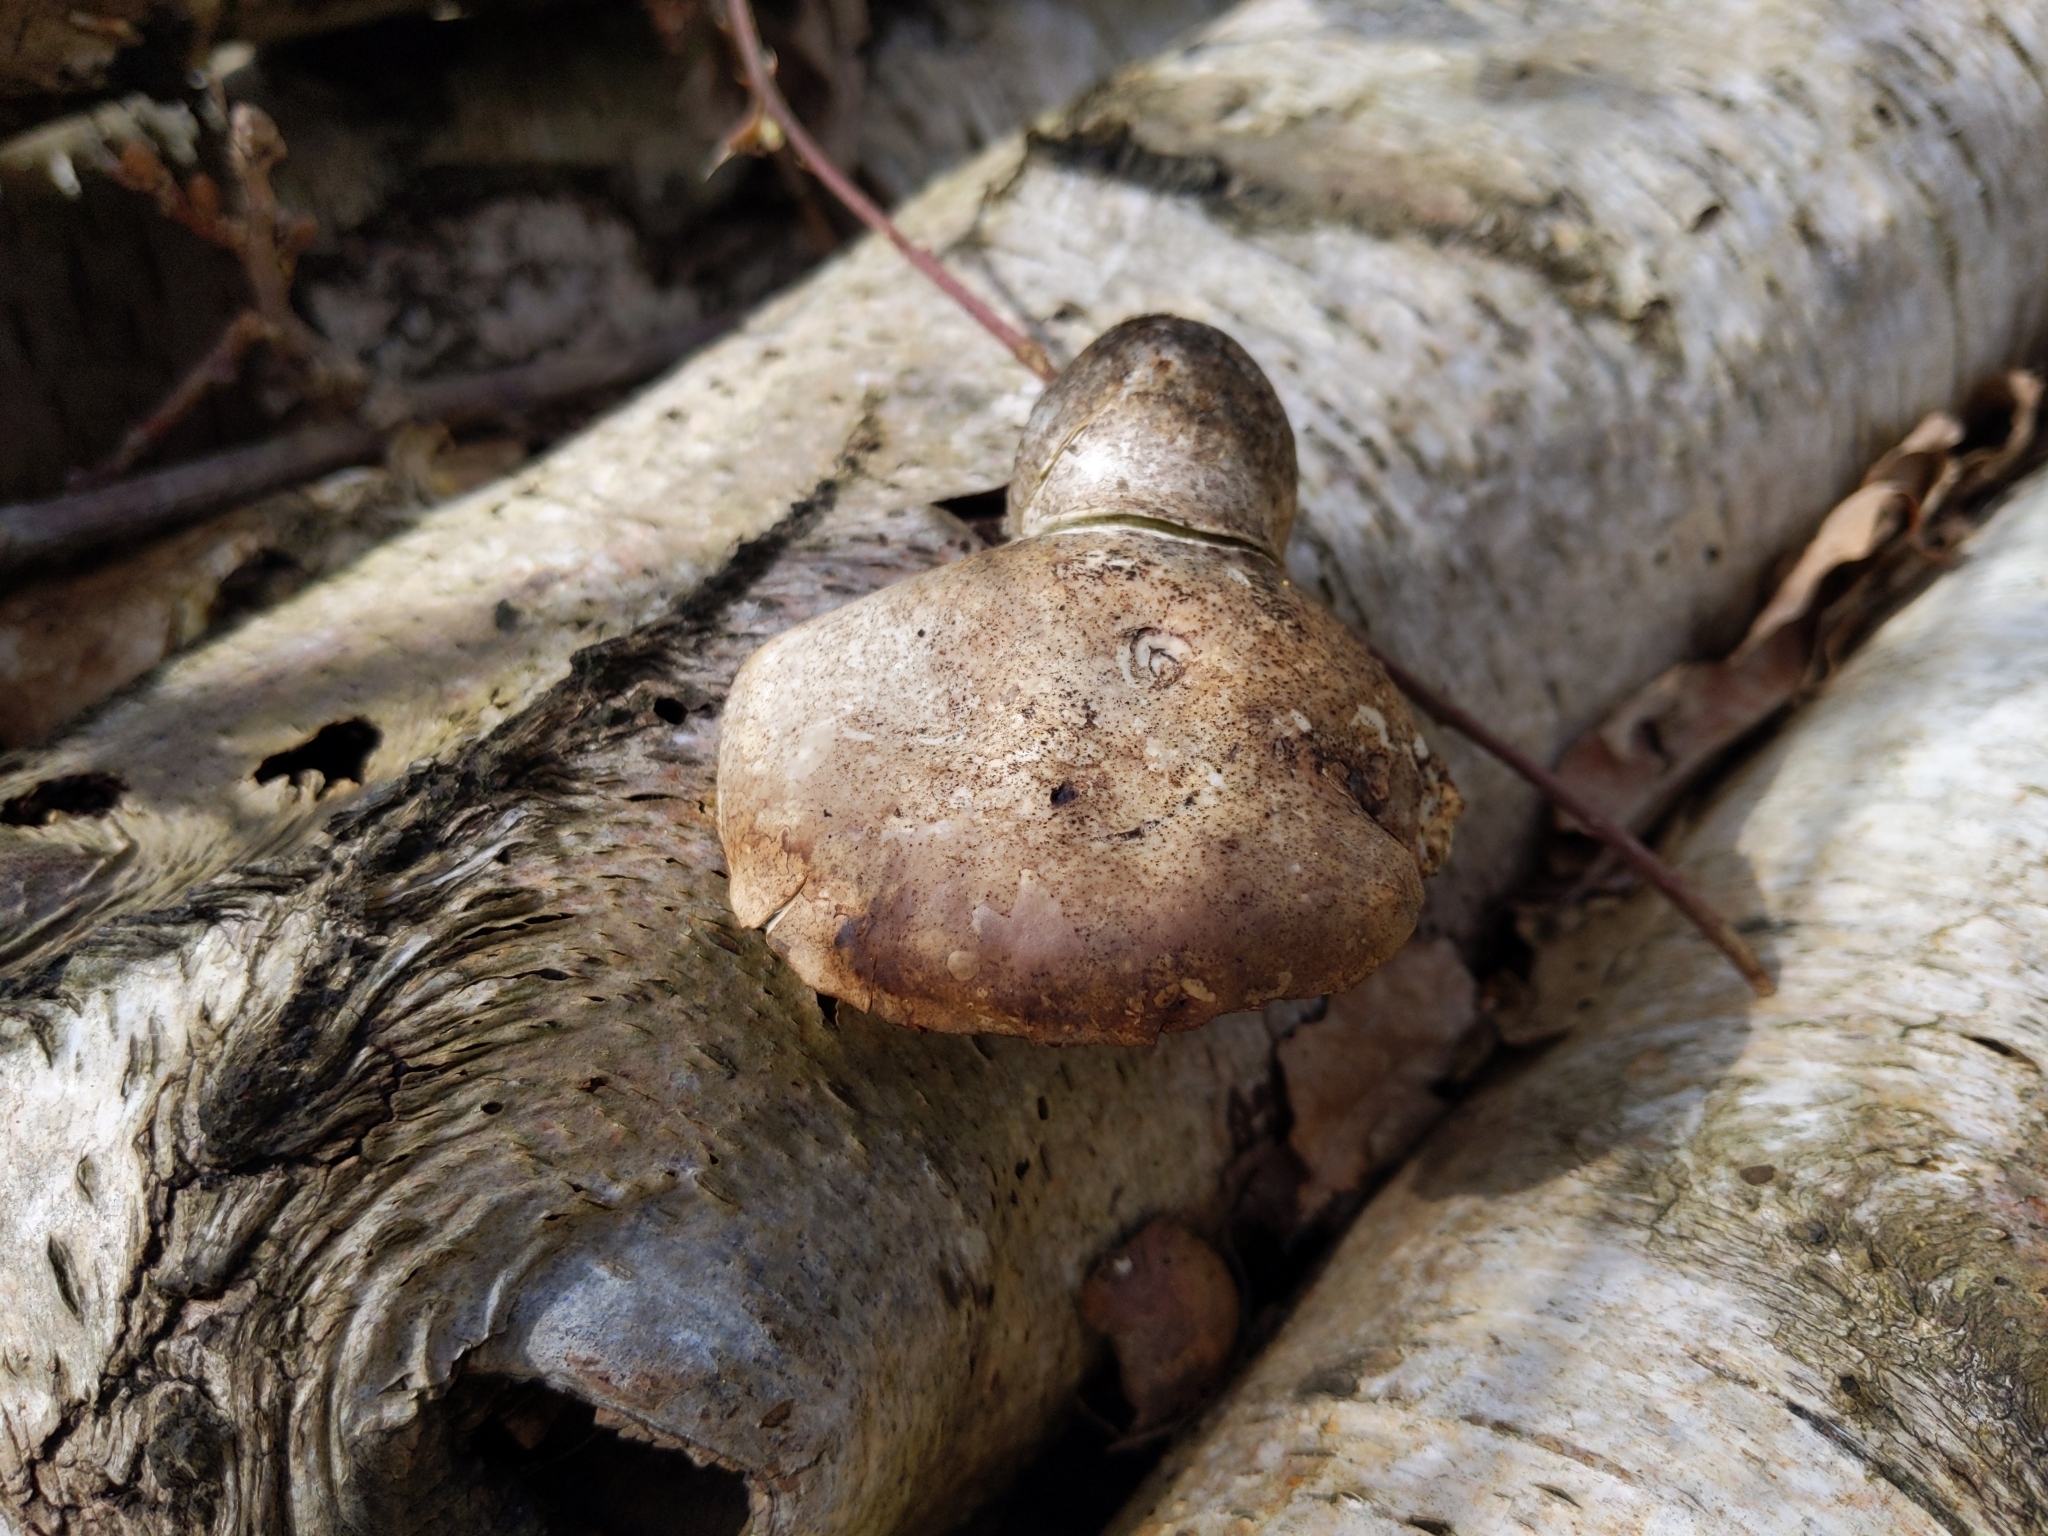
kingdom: Fungi
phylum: Basidiomycota
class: Agaricomycetes
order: Polyporales
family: Fomitopsidaceae
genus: Fomitopsis
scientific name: Fomitopsis betulina
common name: Birch polypore
